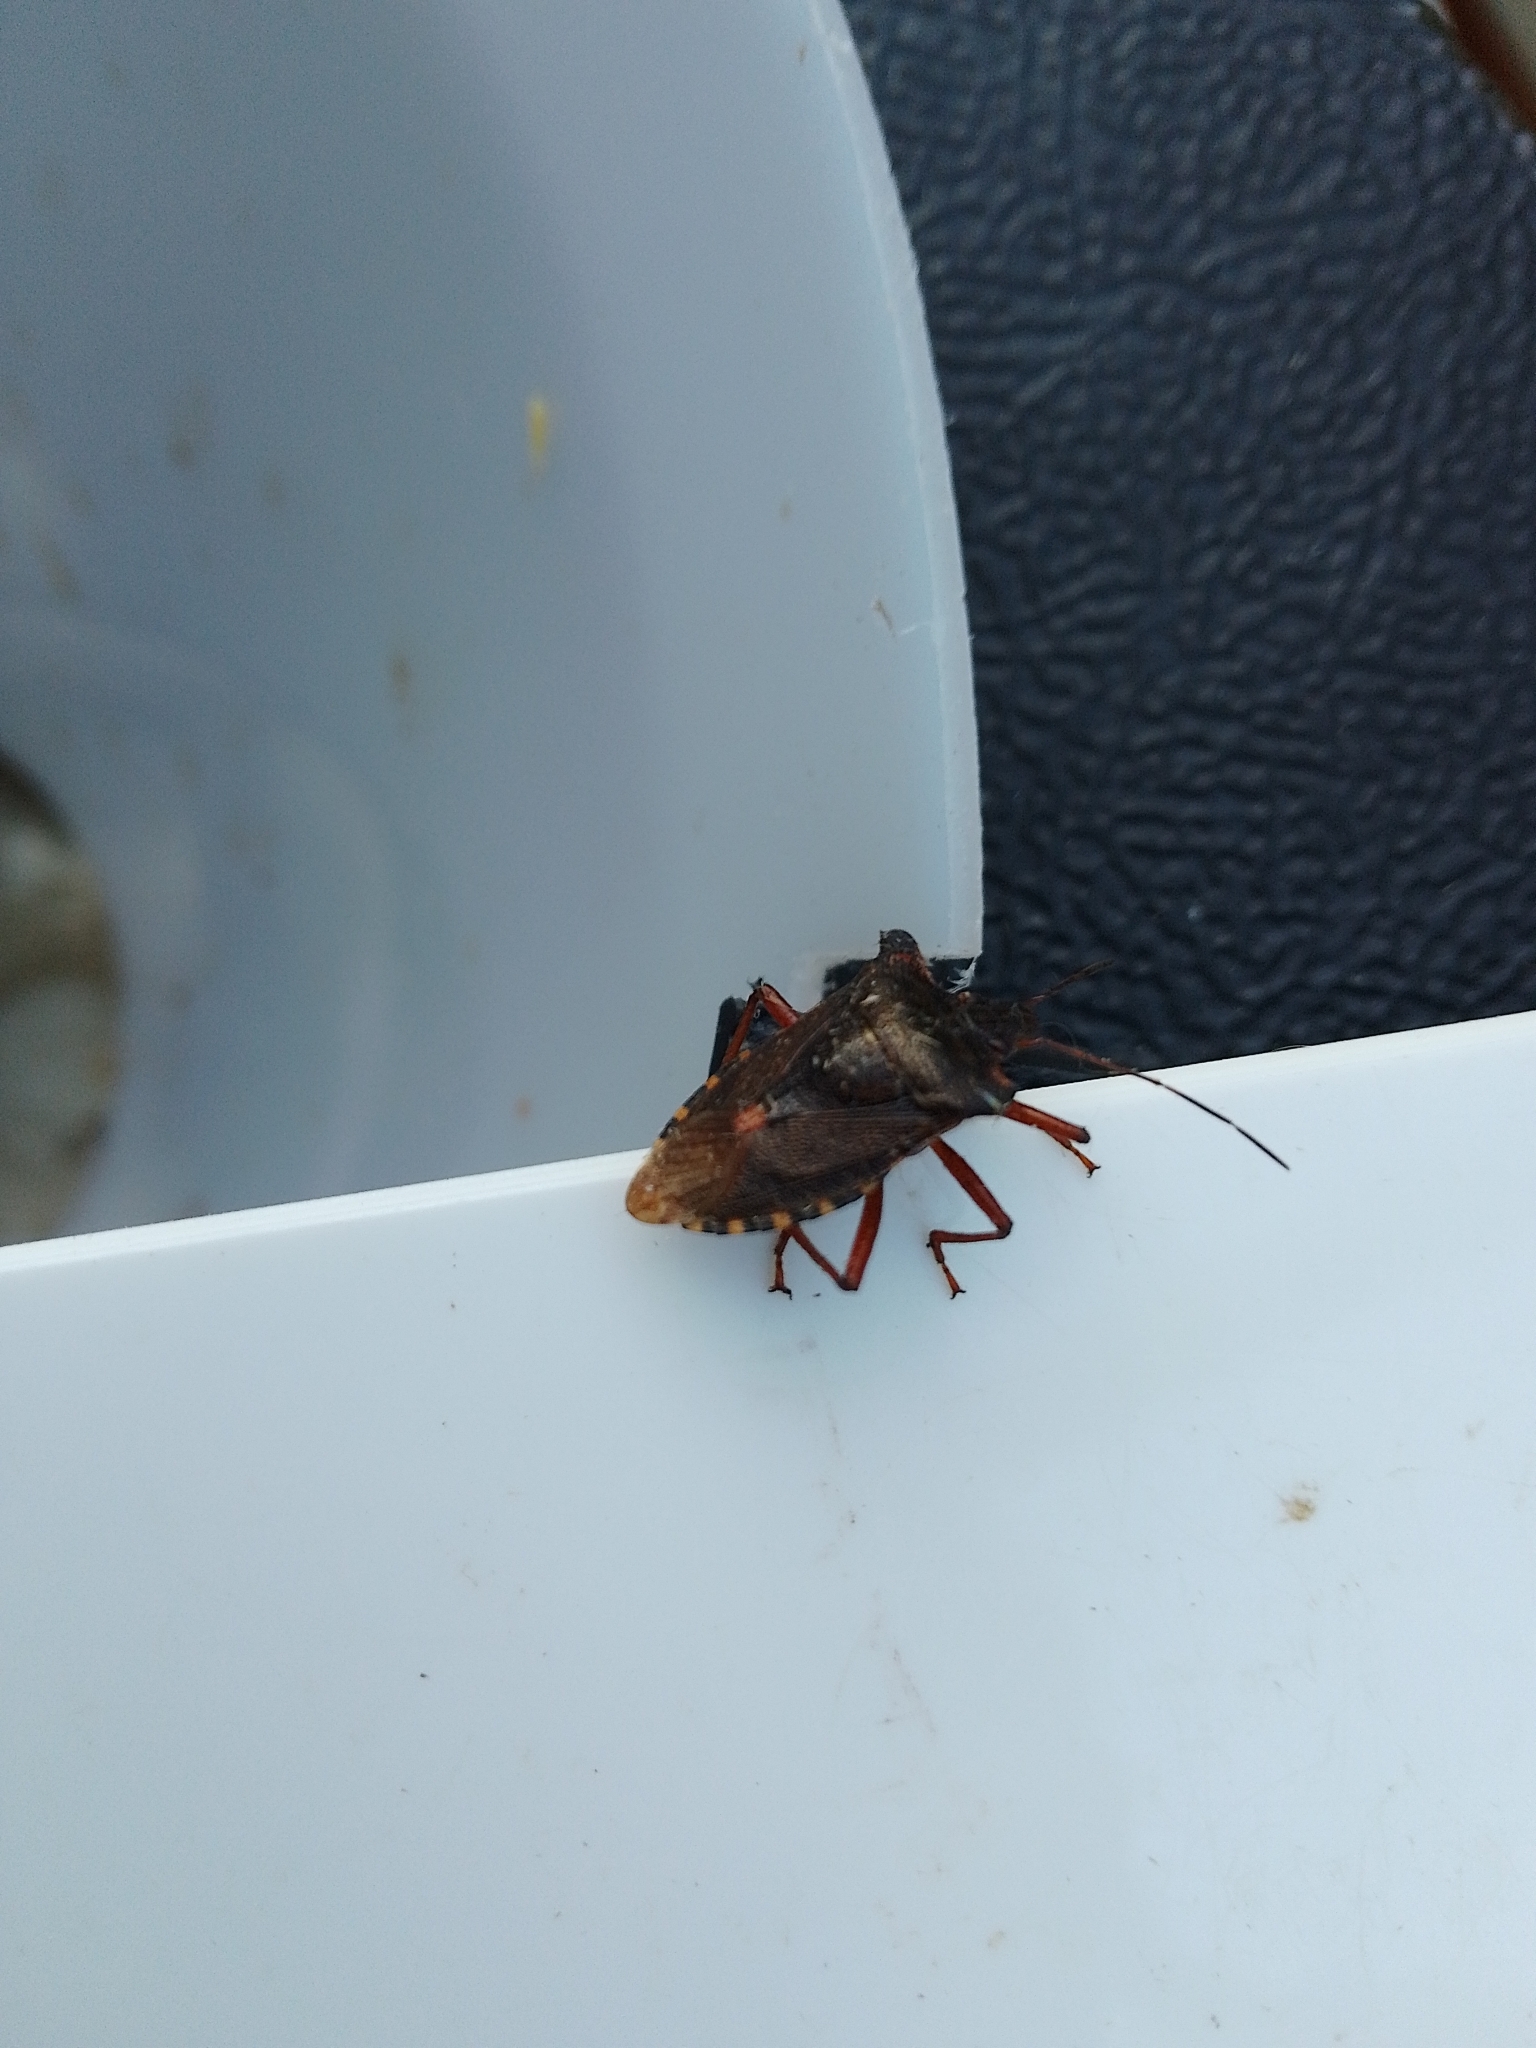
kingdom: Animalia
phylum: Arthropoda
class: Insecta
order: Hemiptera
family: Pentatomidae
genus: Pentatoma
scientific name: Pentatoma rufipes
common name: Forest bug
